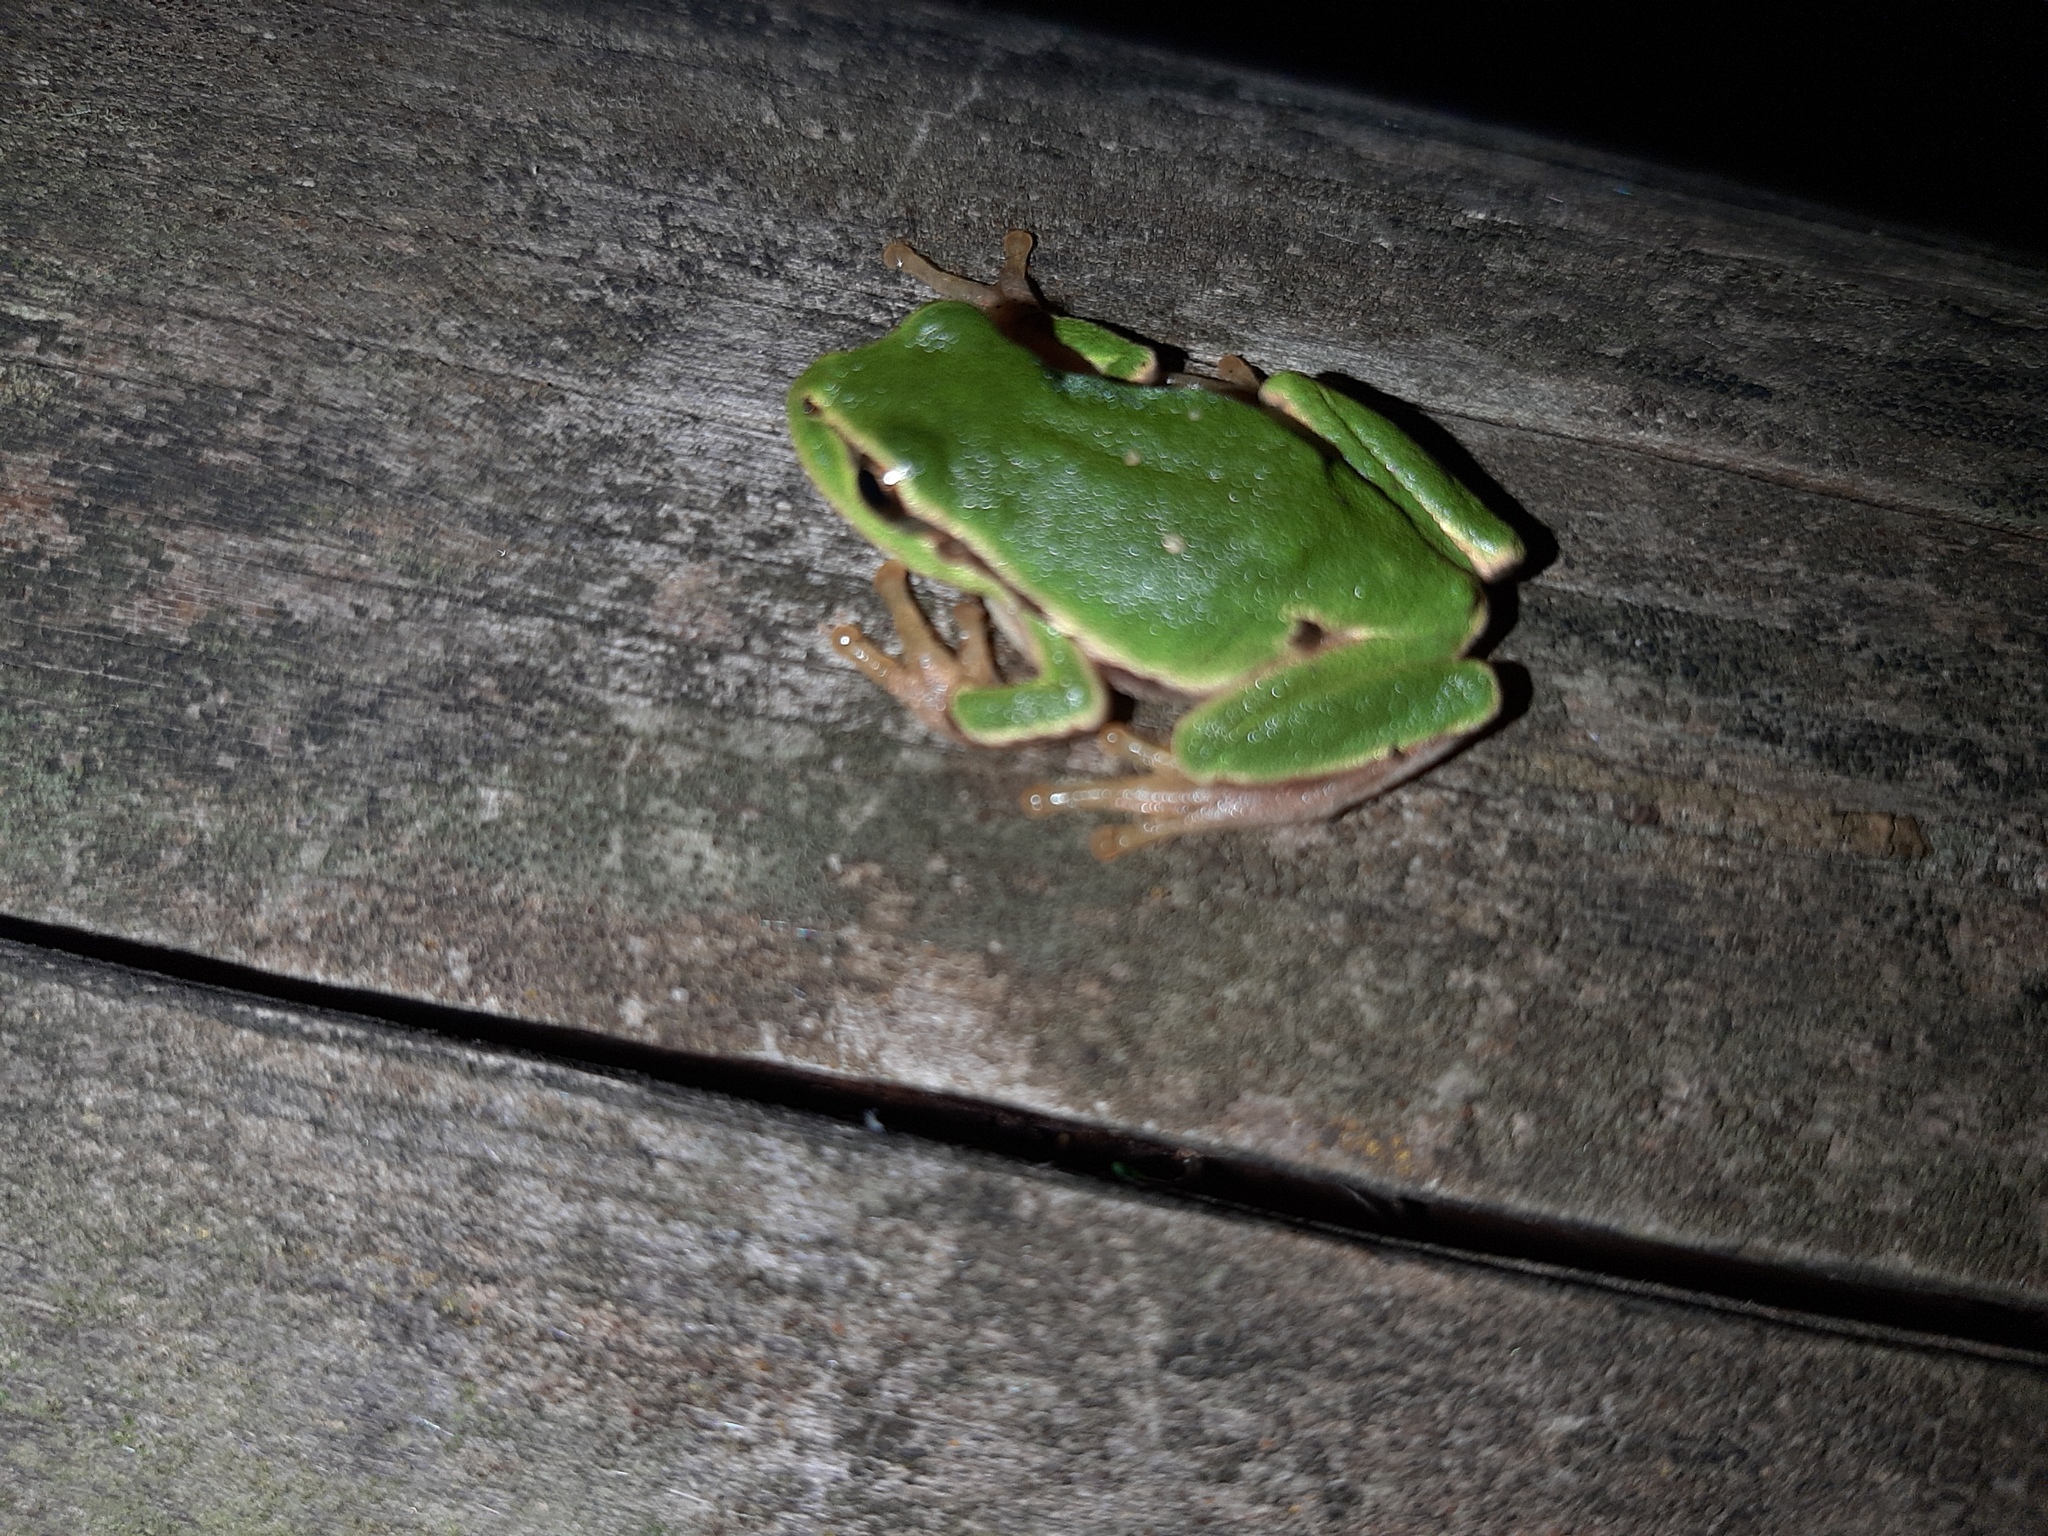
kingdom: Animalia
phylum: Chordata
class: Amphibia
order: Anura
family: Hylidae
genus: Hyla
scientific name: Hyla intermedia
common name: Italian tree frog
